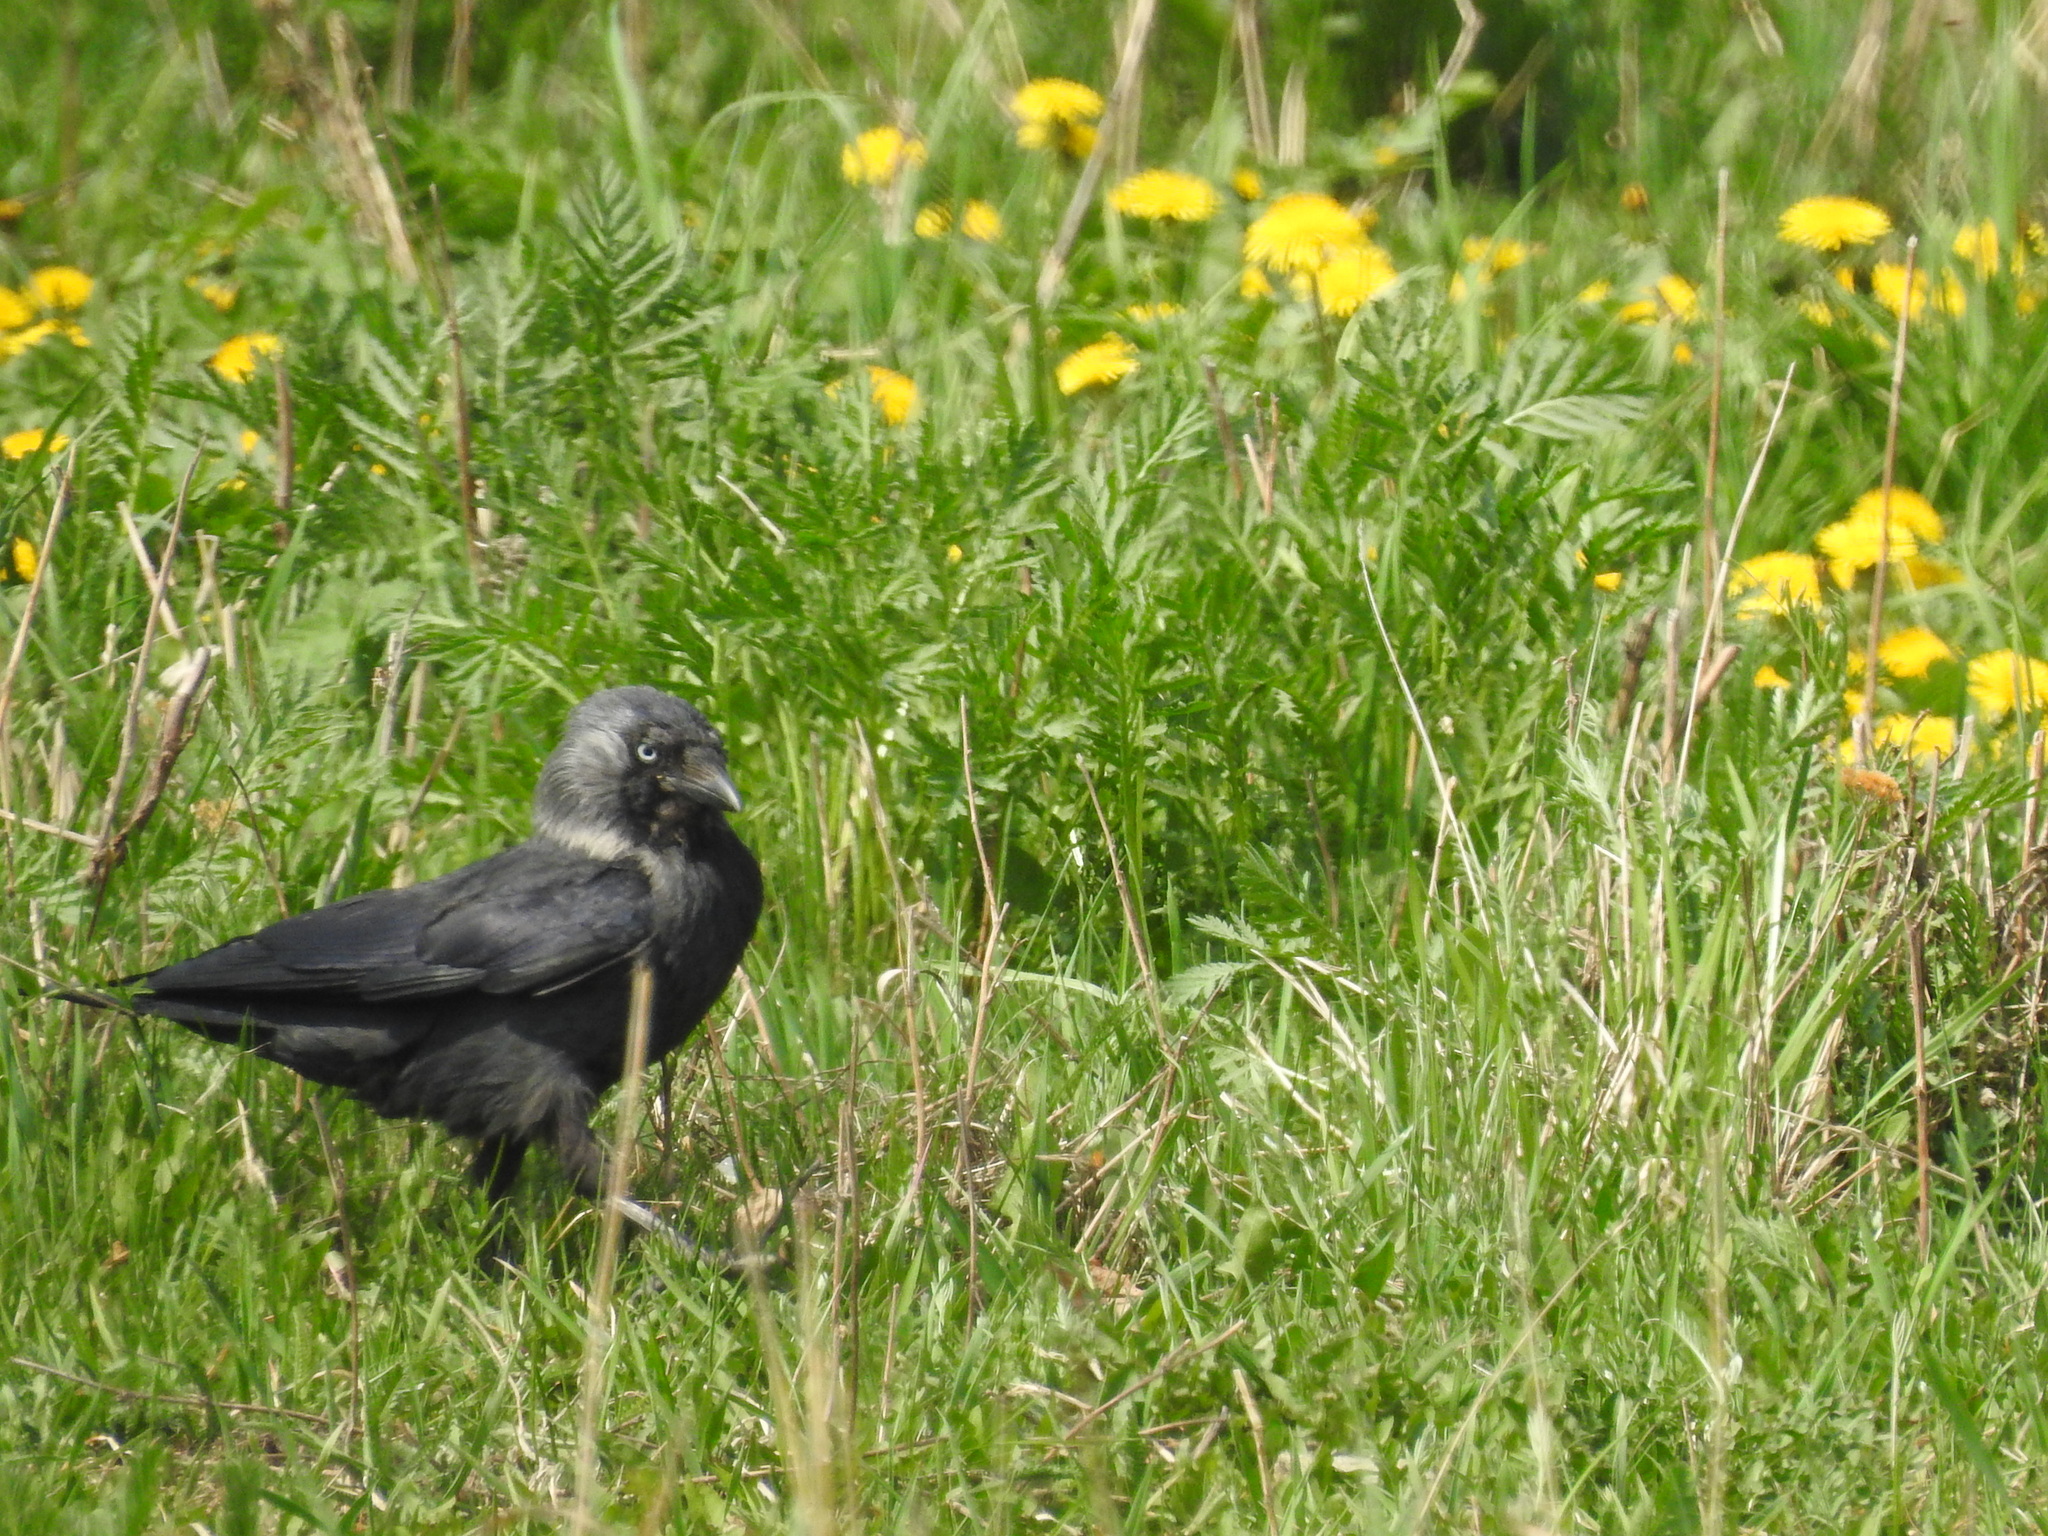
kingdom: Animalia
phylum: Chordata
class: Aves
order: Passeriformes
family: Corvidae
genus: Coloeus
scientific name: Coloeus monedula
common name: Western jackdaw
